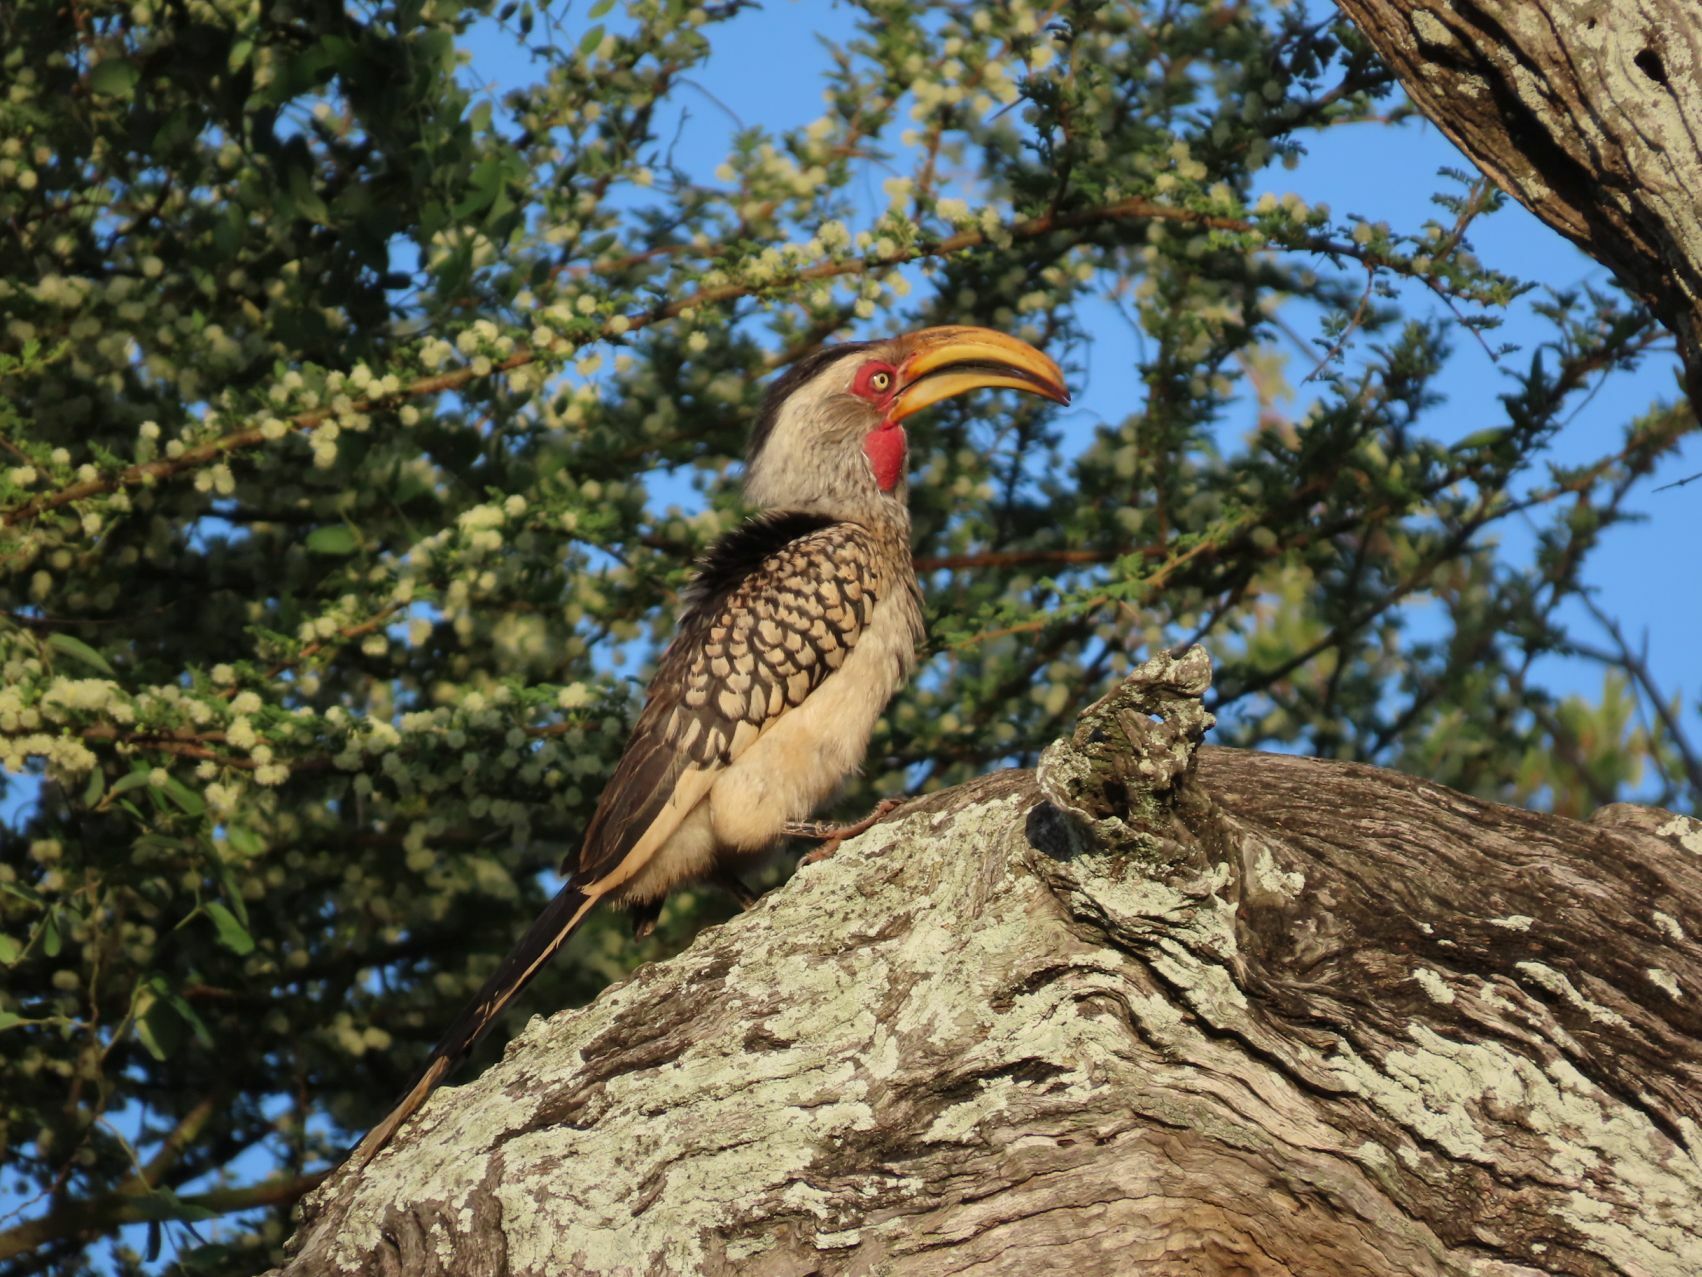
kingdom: Animalia
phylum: Chordata
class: Aves
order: Bucerotiformes
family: Bucerotidae
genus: Tockus
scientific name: Tockus leucomelas
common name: Southern yellow-billed hornbill
